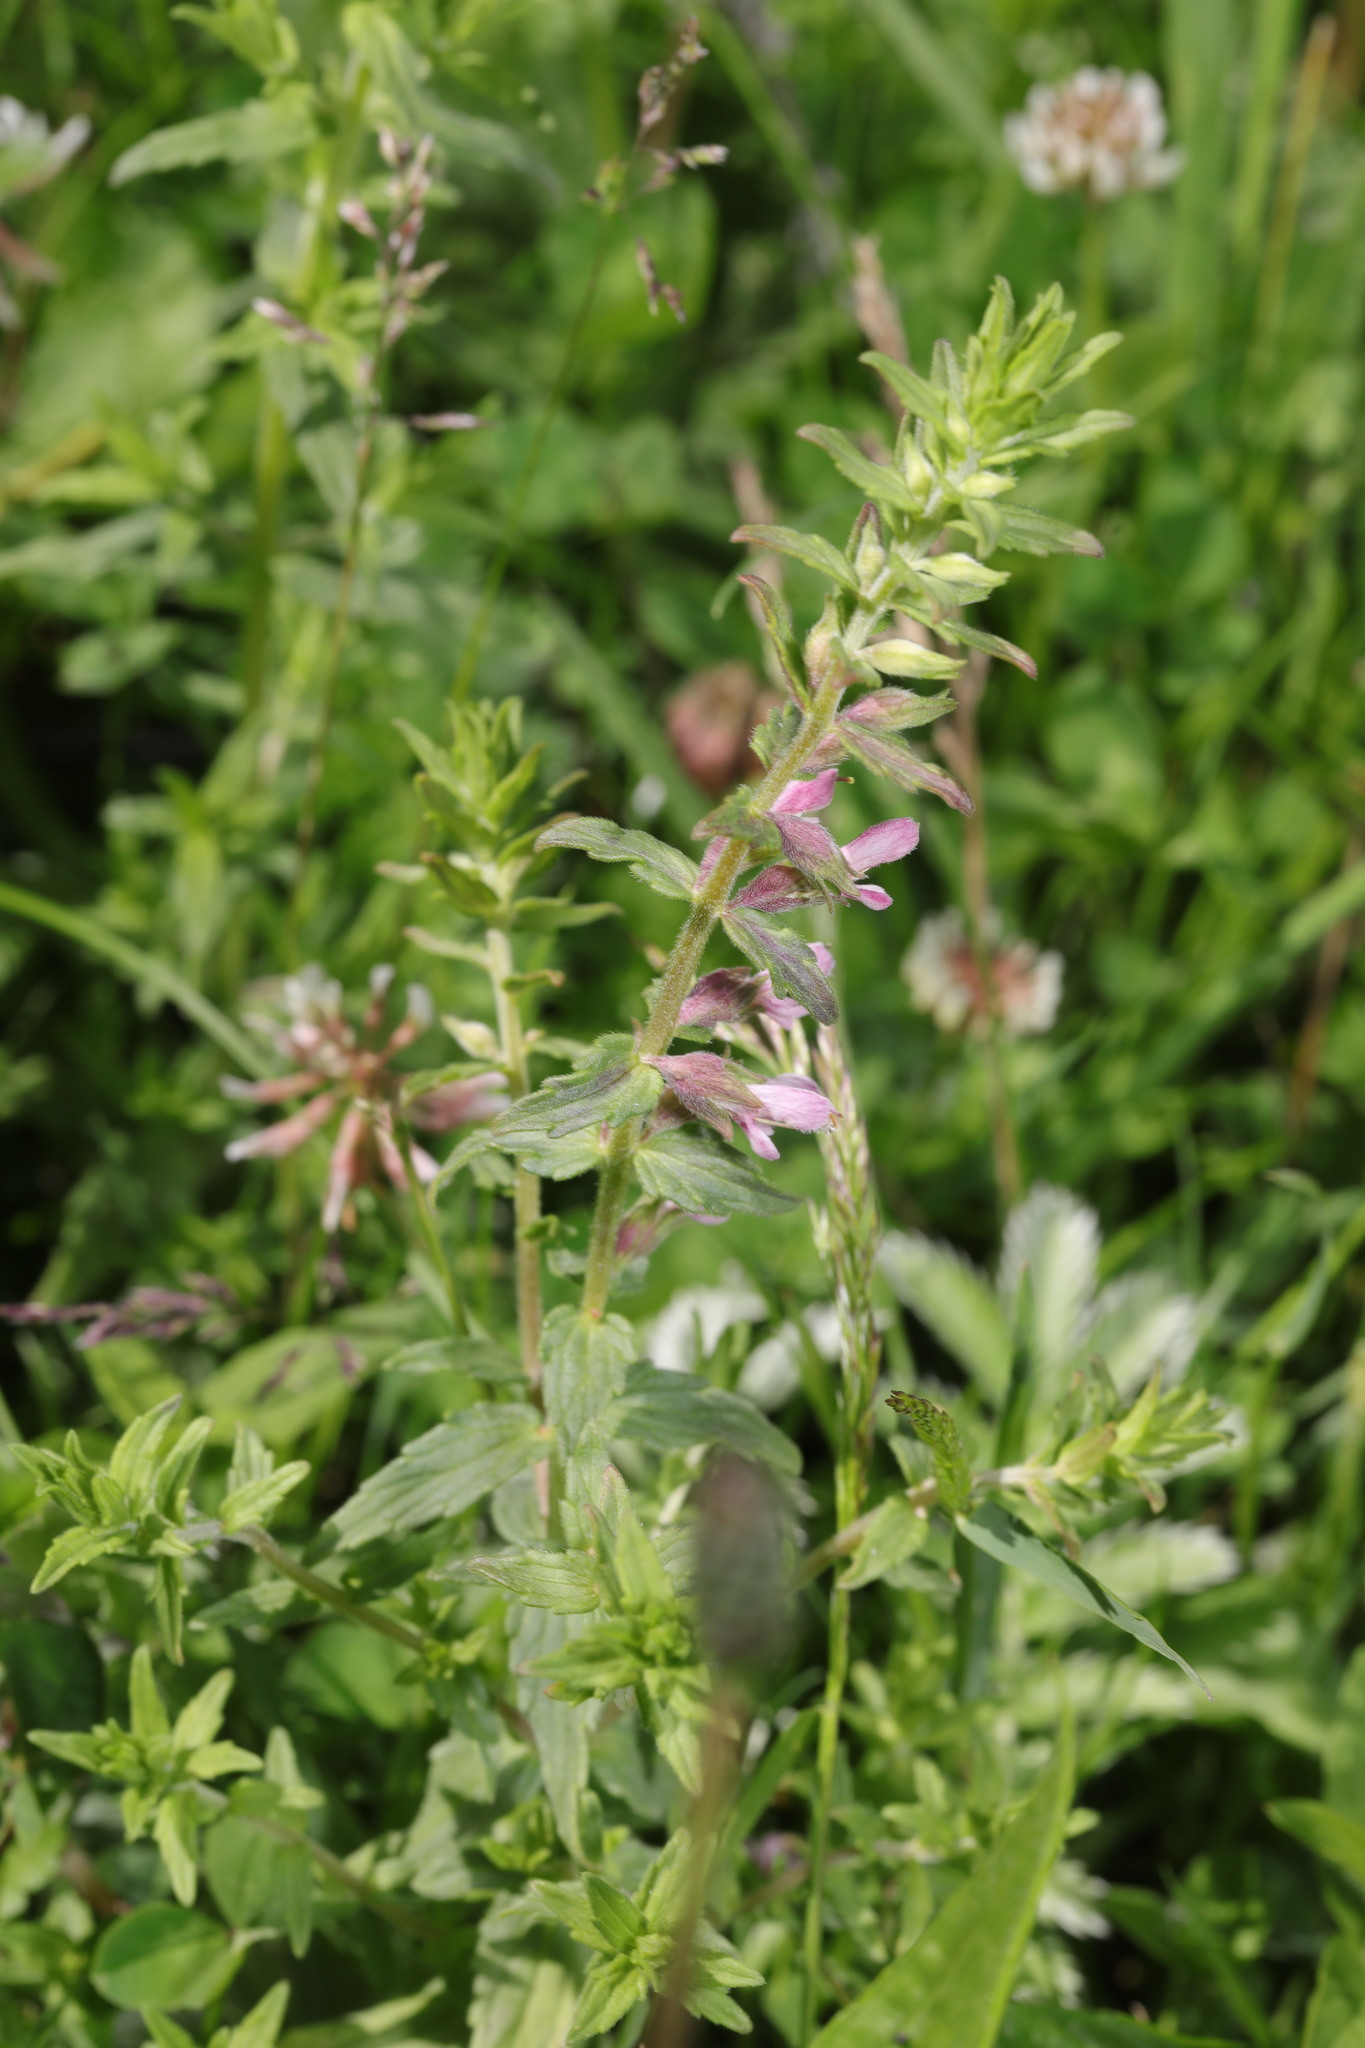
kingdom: Plantae
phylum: Tracheophyta
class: Magnoliopsida
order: Lamiales
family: Orobanchaceae
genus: Odontites
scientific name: Odontites vernus
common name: Red bartsia
